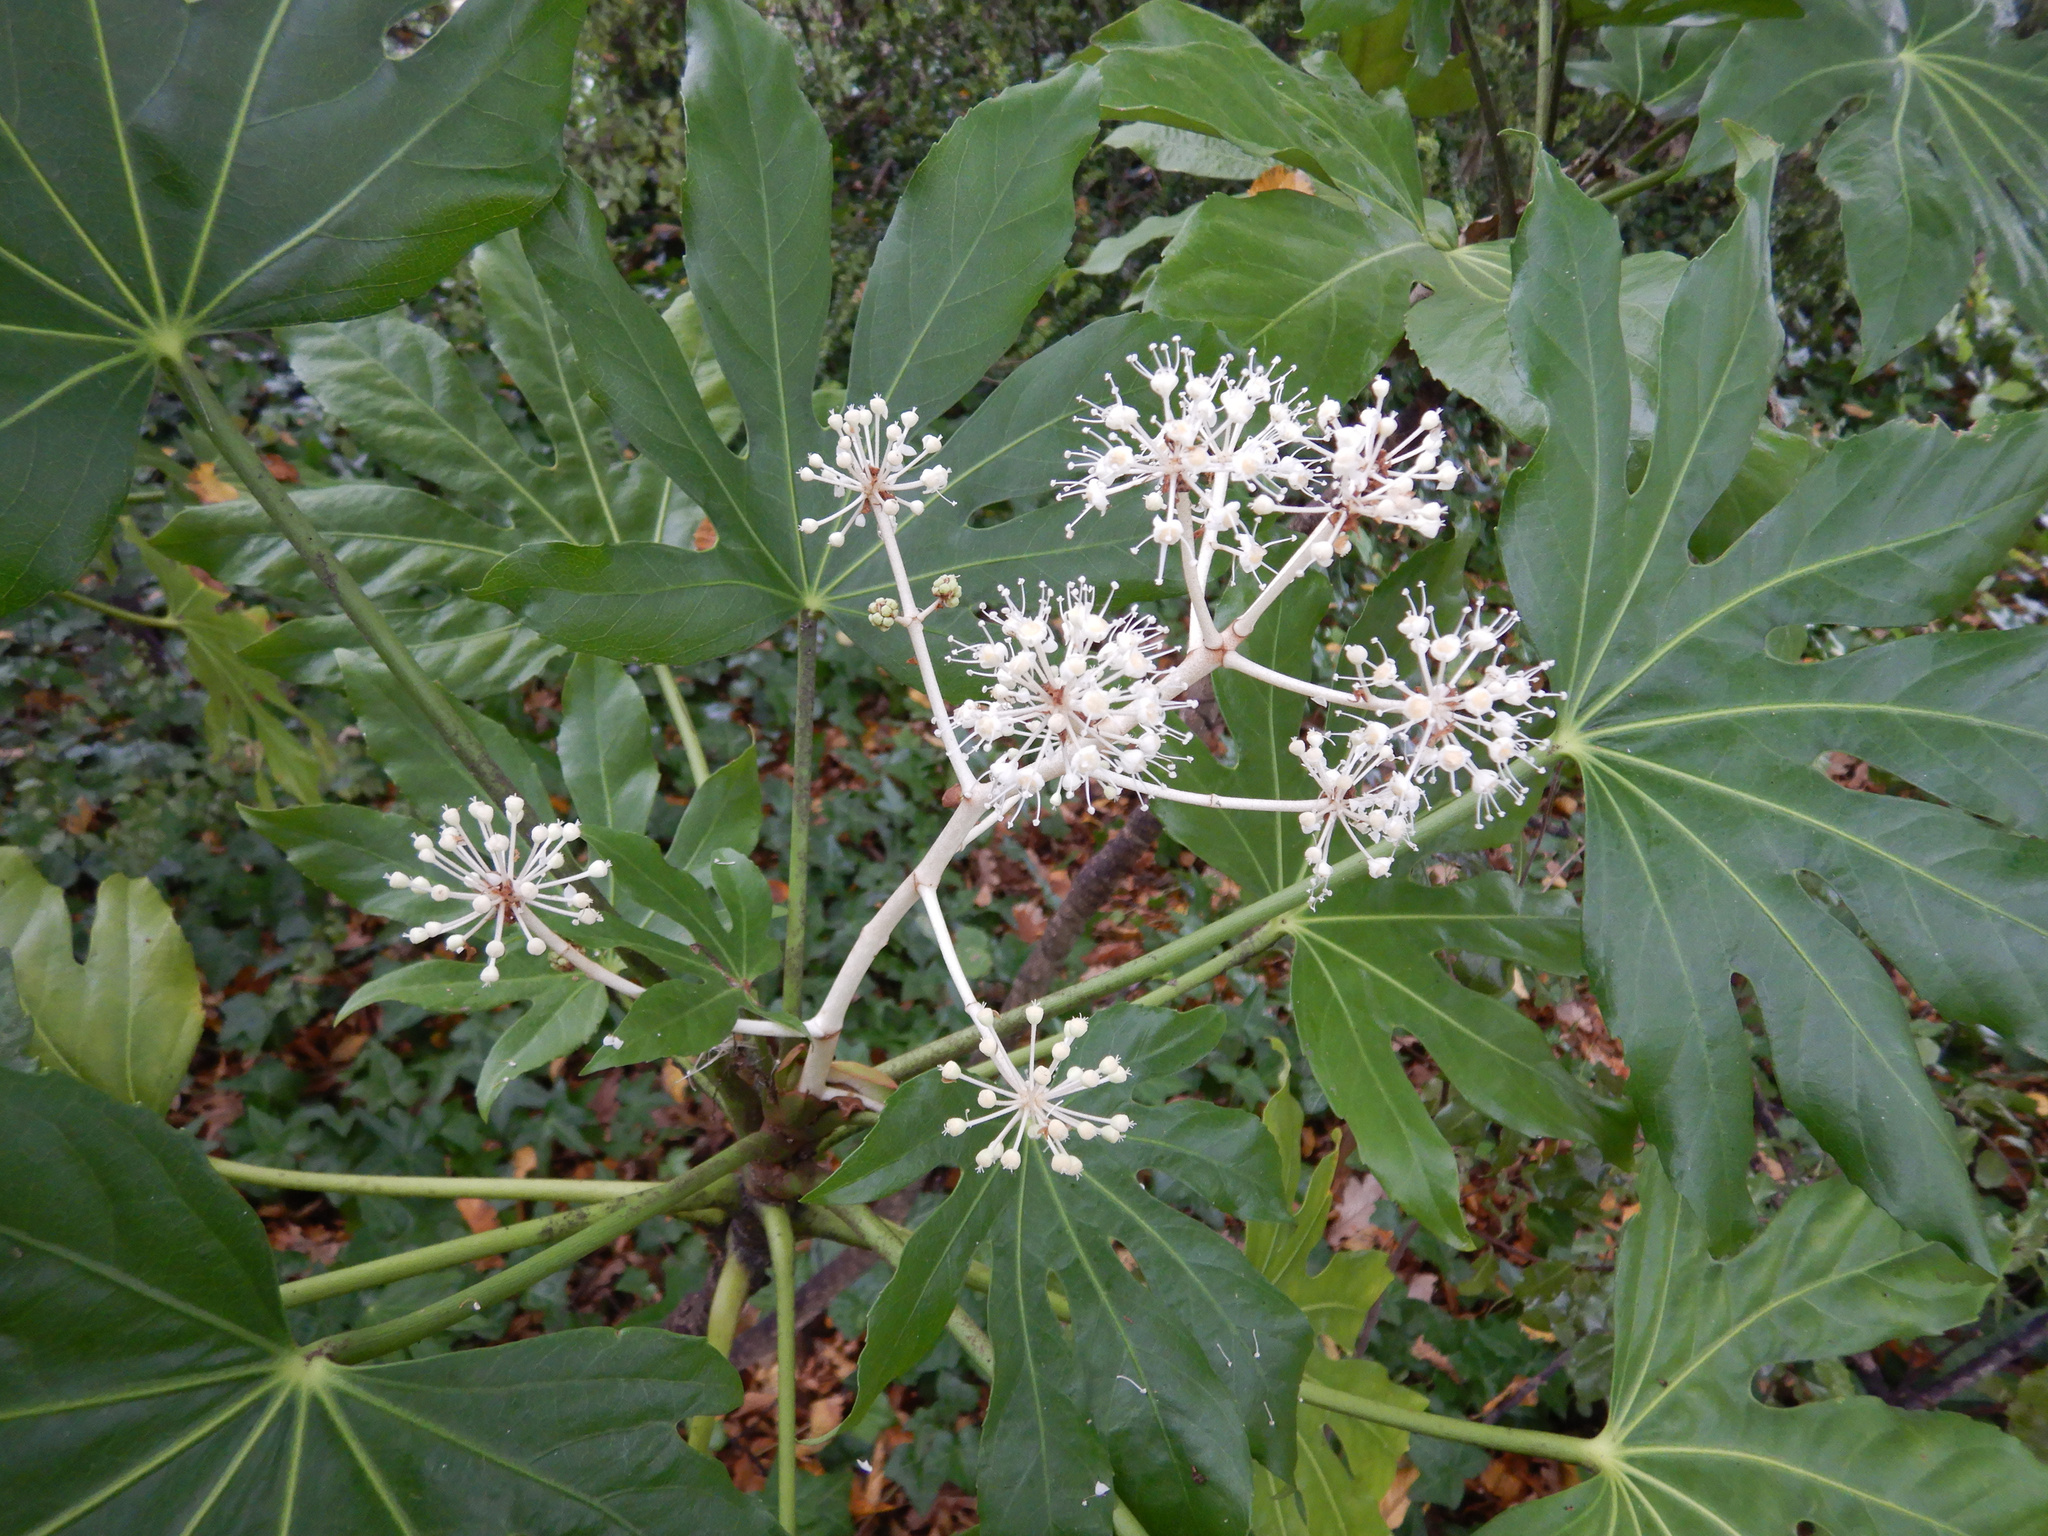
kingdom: Plantae
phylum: Tracheophyta
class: Magnoliopsida
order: Apiales
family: Araliaceae
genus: Fatsia
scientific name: Fatsia japonica
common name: Fatsia
